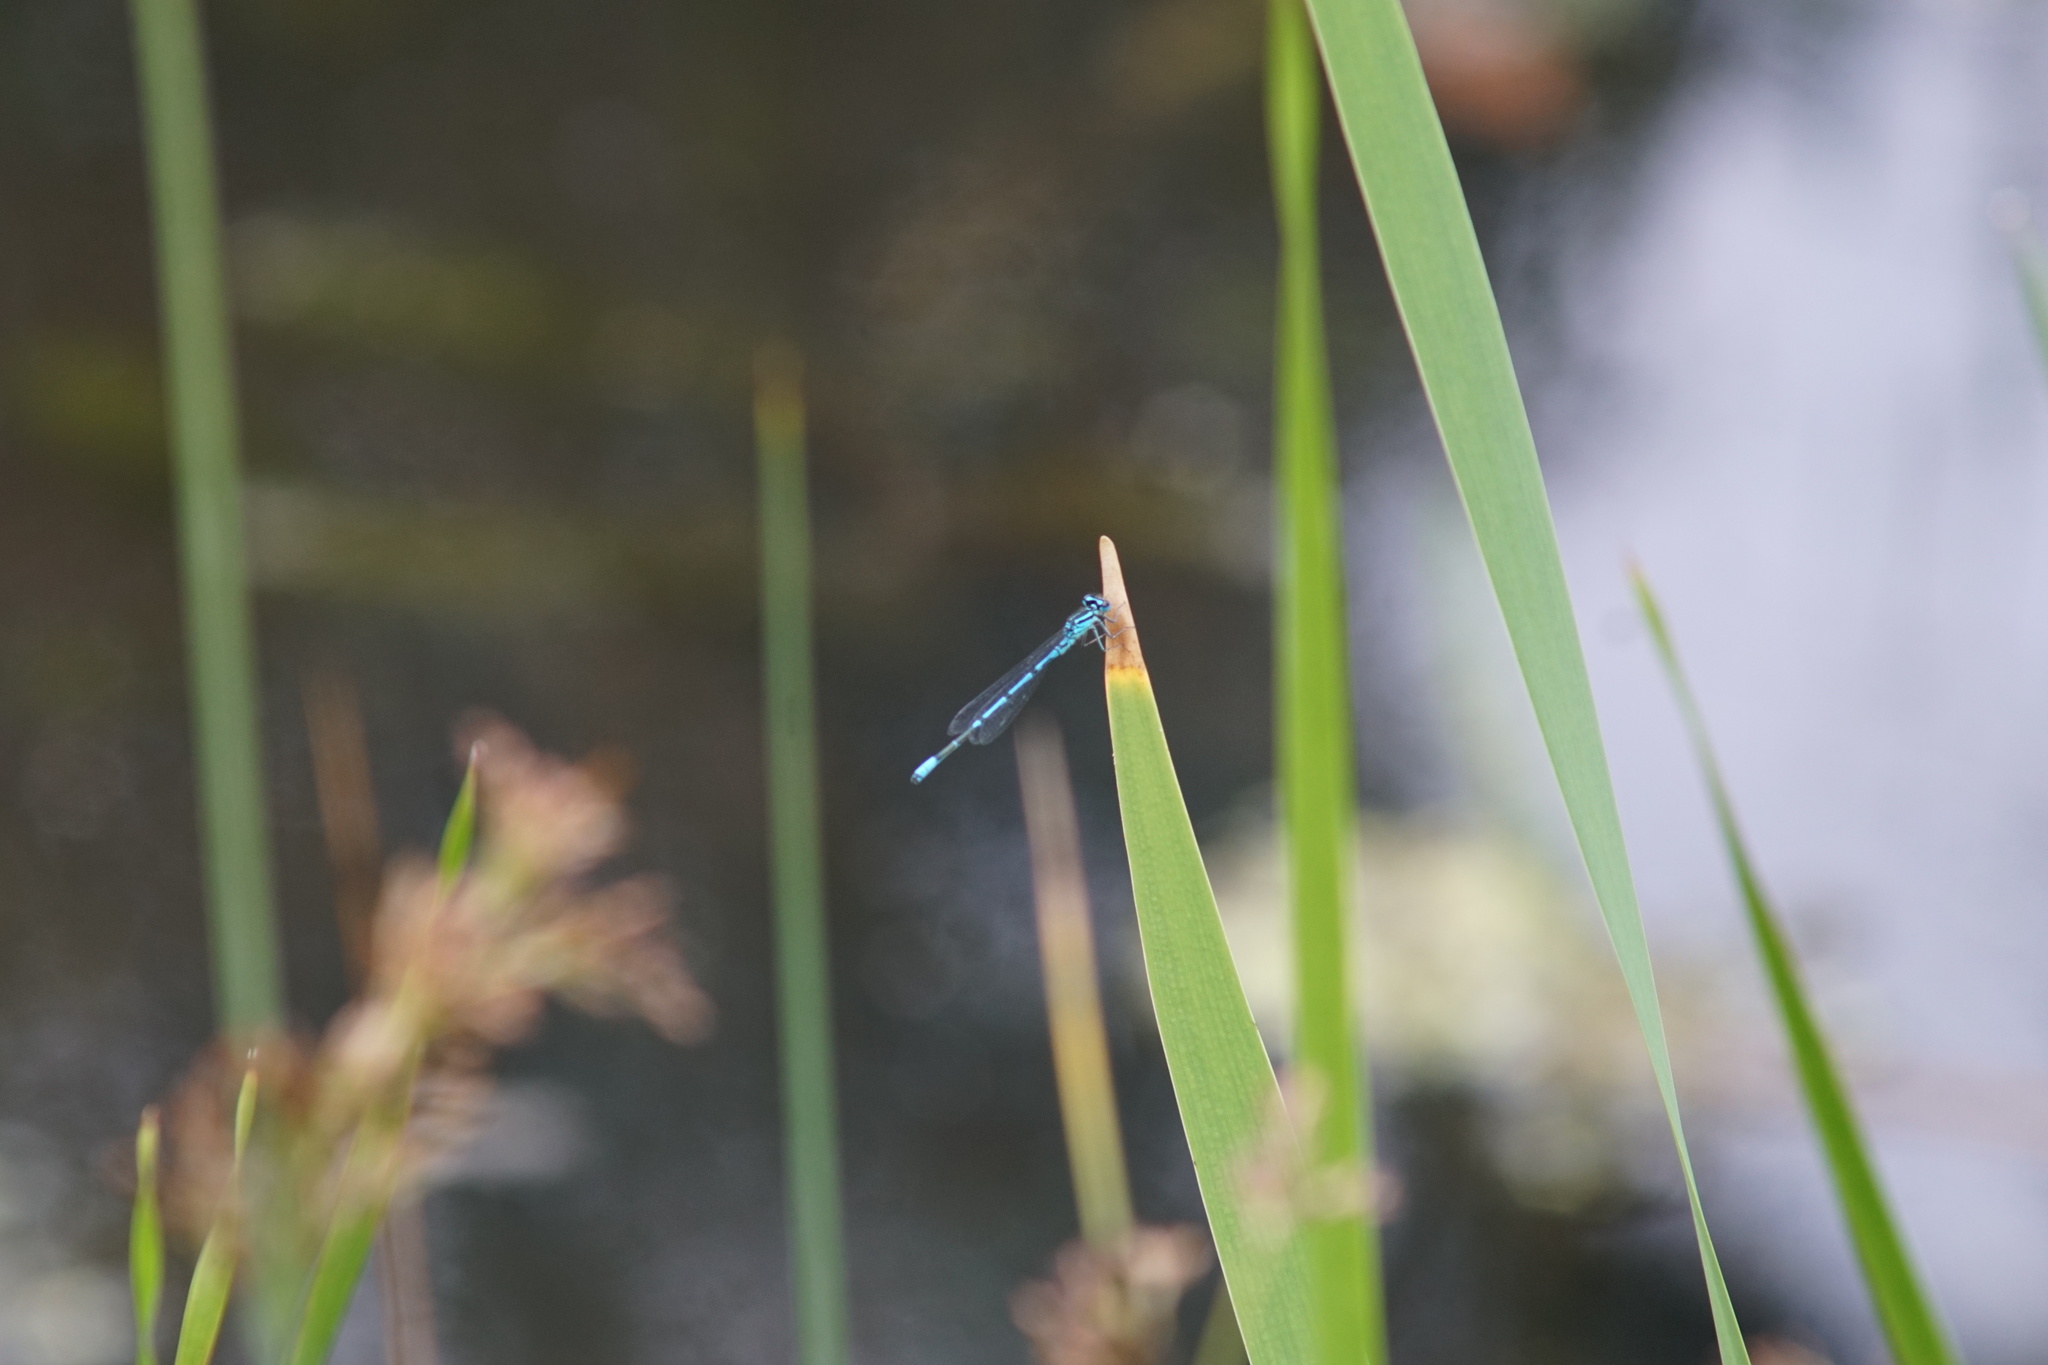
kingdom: Animalia
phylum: Arthropoda
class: Insecta
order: Odonata
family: Coenagrionidae
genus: Coenagrion
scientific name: Coenagrion puella
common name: Azure damselfly
